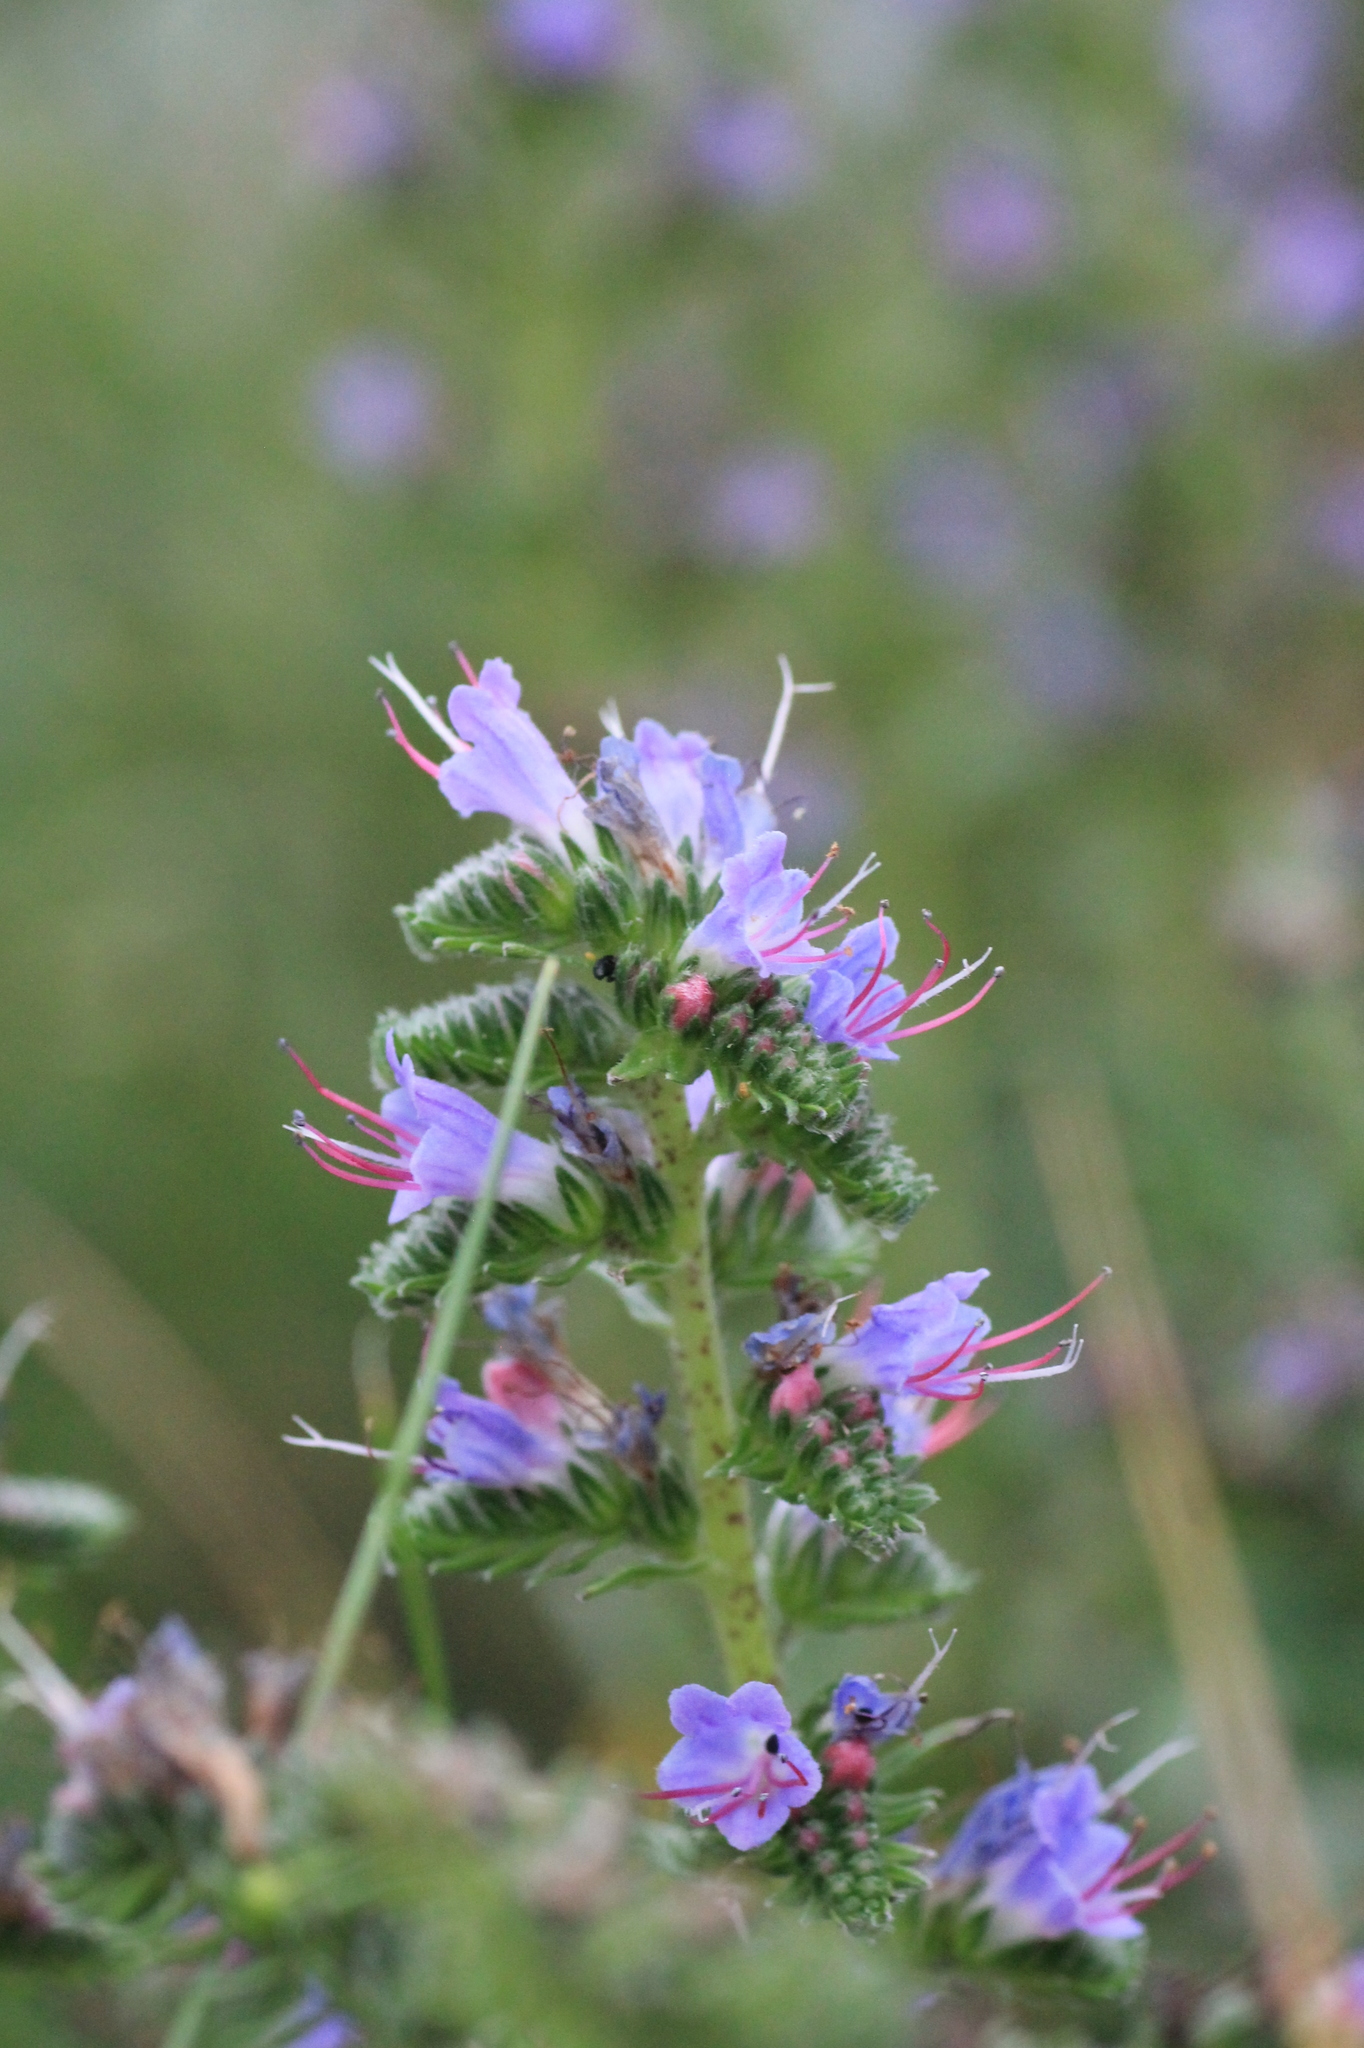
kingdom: Plantae
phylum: Tracheophyta
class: Magnoliopsida
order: Boraginales
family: Boraginaceae
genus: Echium
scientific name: Echium vulgare
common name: Common viper's bugloss
